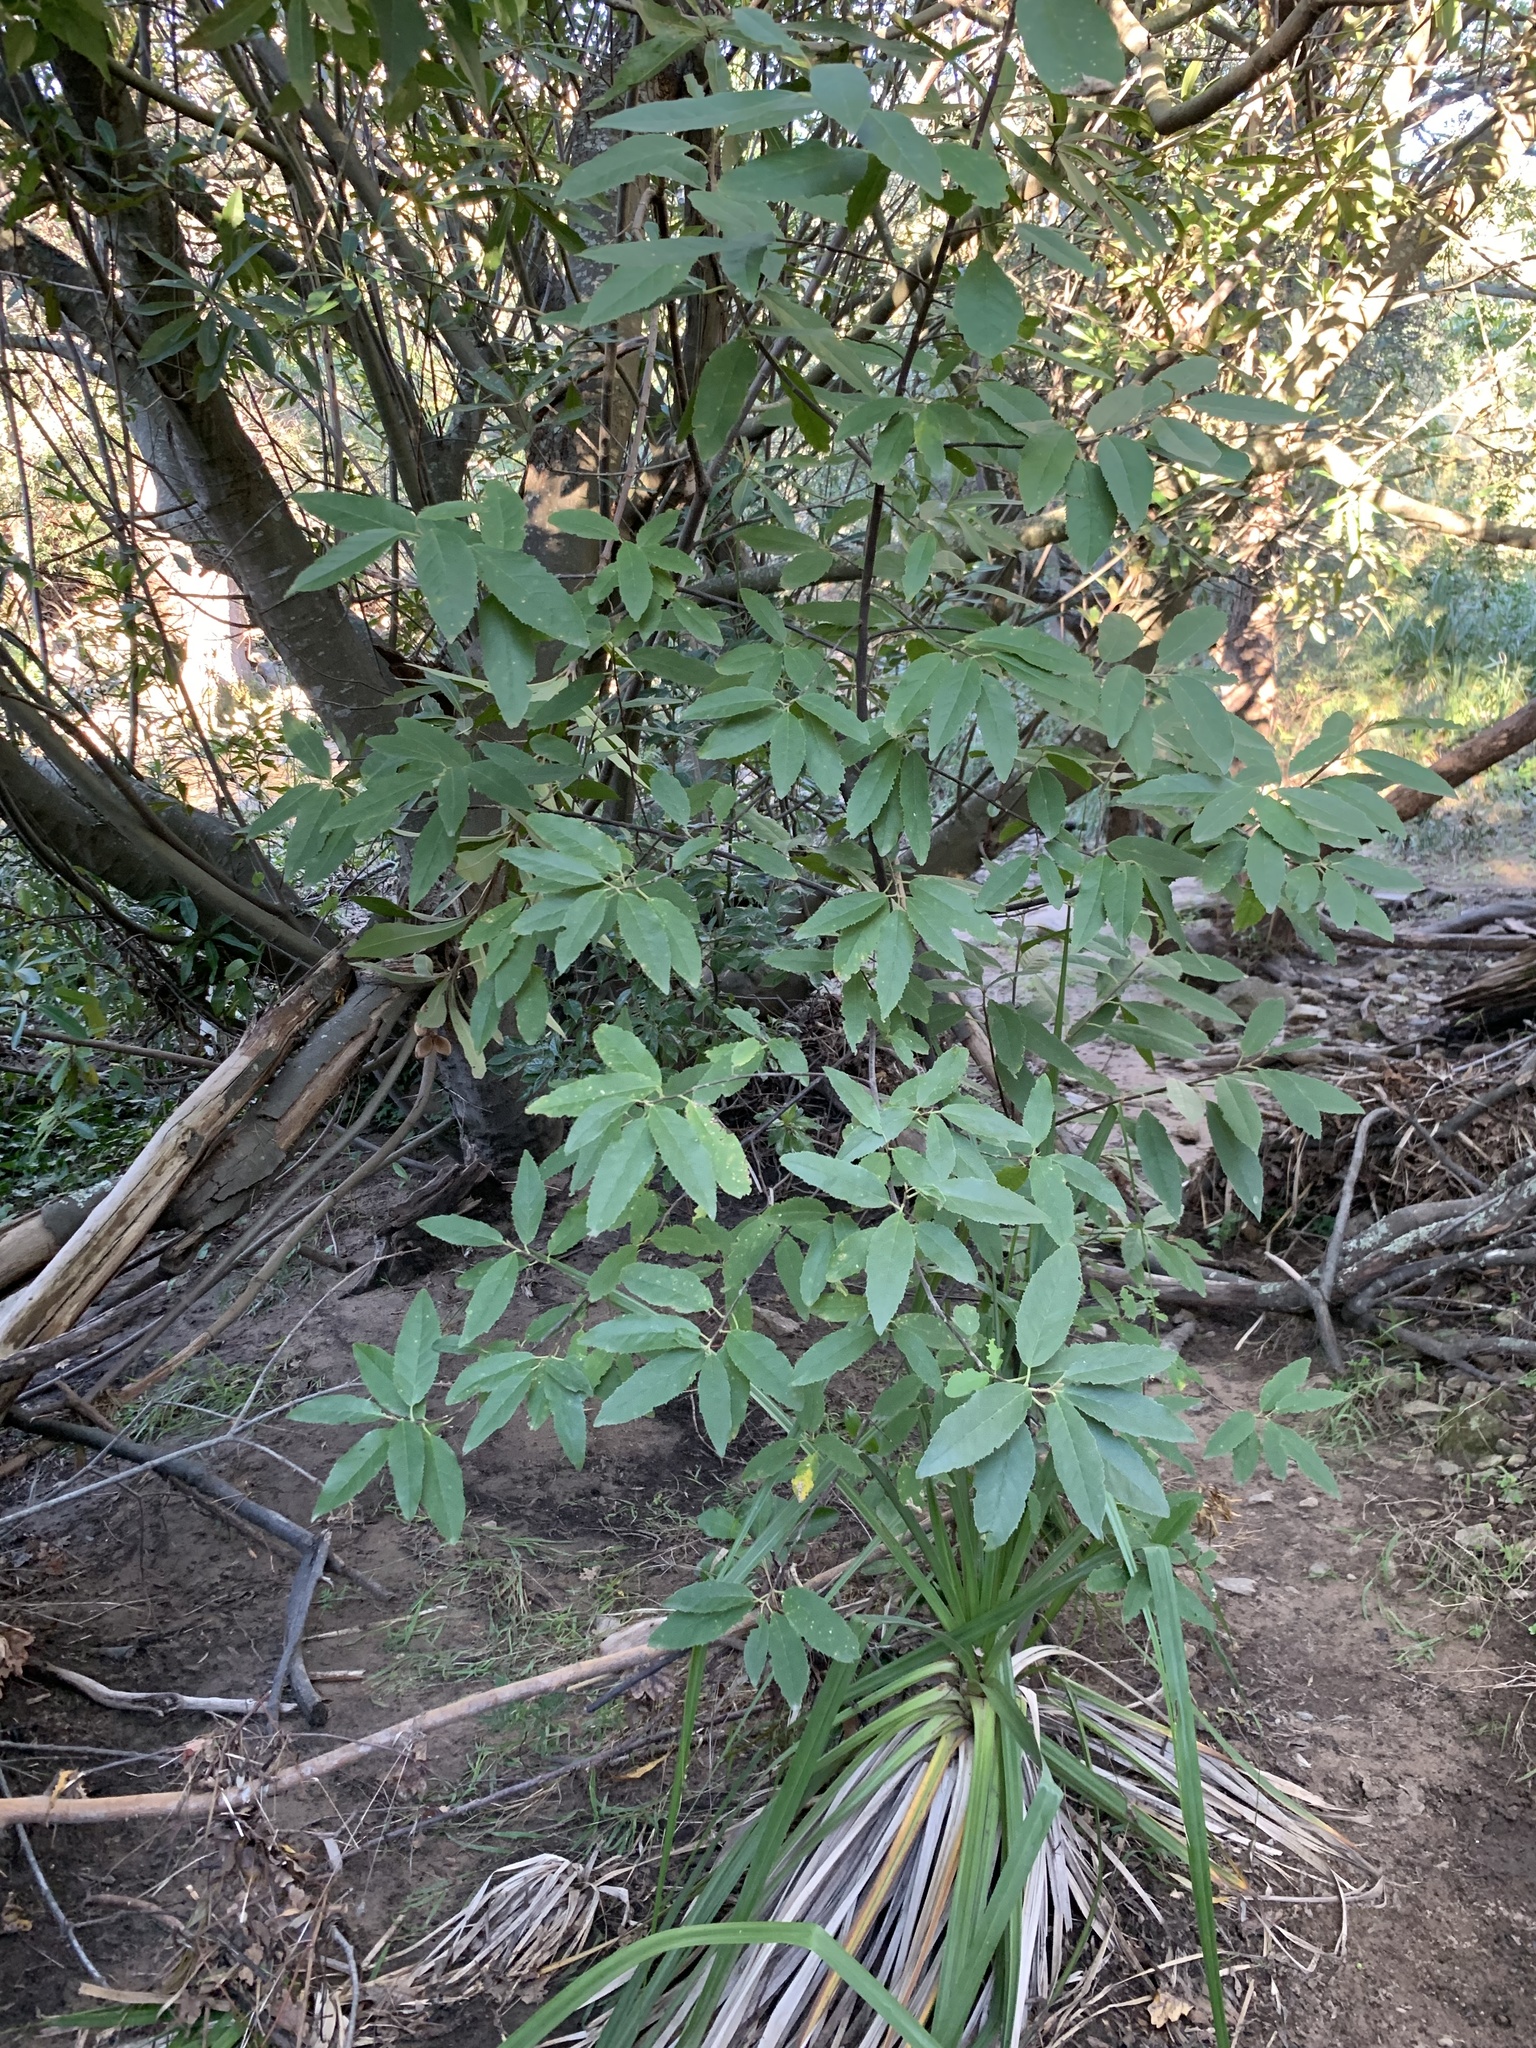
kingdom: Plantae
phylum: Tracheophyta
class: Magnoliopsida
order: Malpighiales
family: Achariaceae
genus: Kiggelaria
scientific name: Kiggelaria africana
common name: Wild peach
